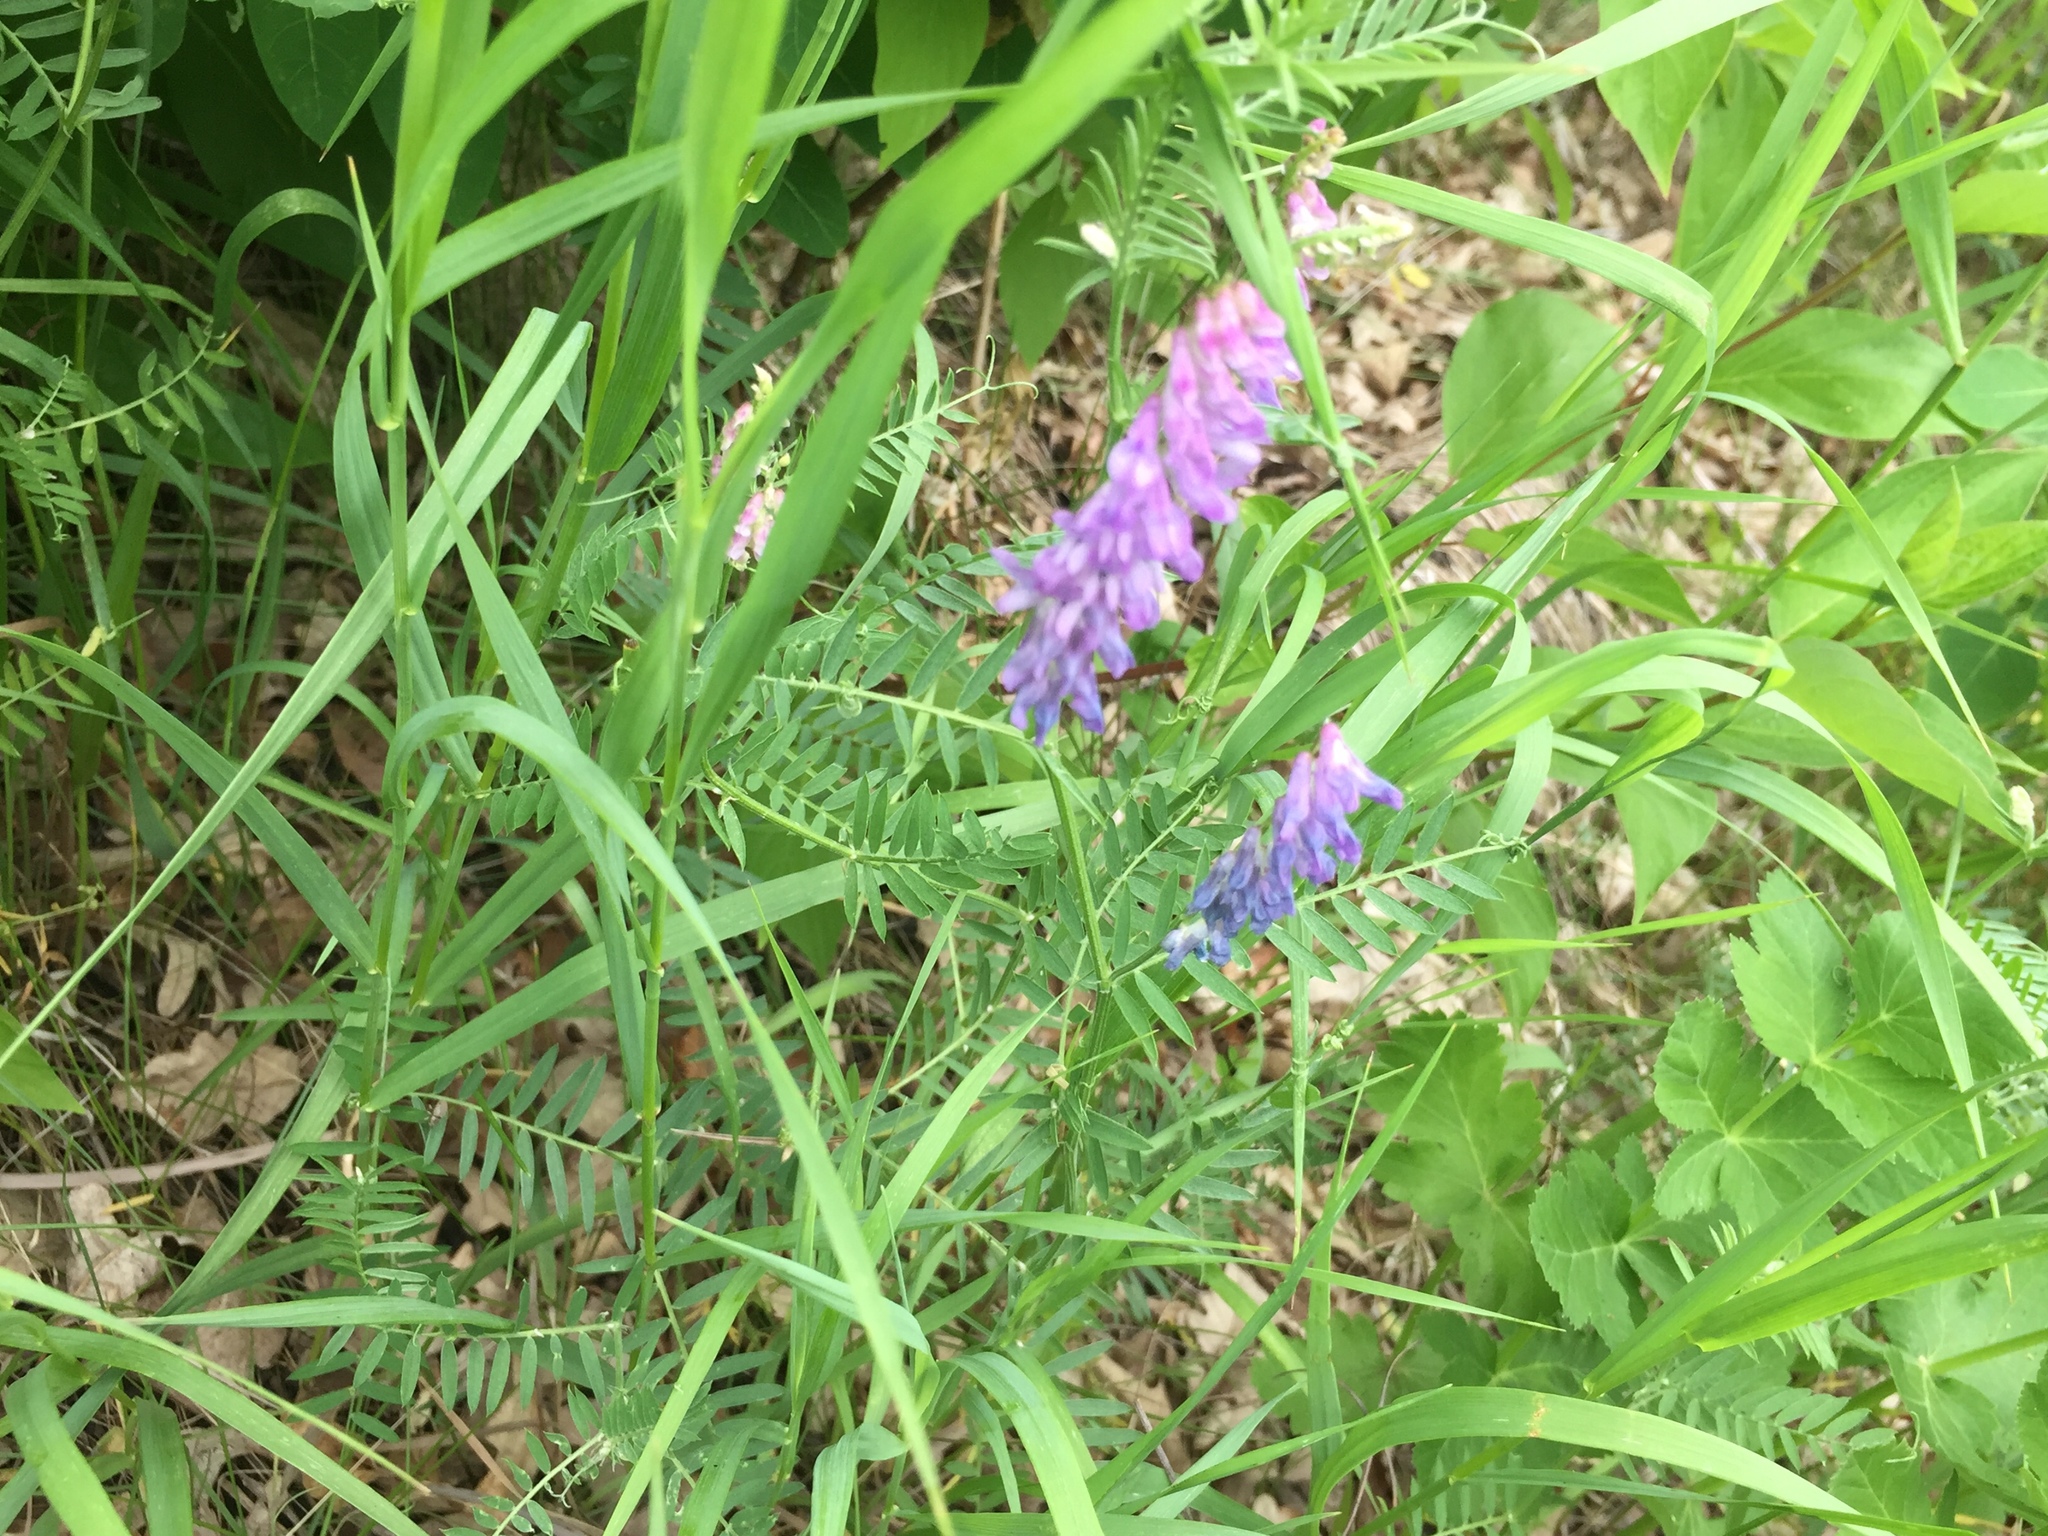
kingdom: Plantae
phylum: Tracheophyta
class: Magnoliopsida
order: Fabales
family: Fabaceae
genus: Vicia
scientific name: Vicia cracca
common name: Bird vetch
